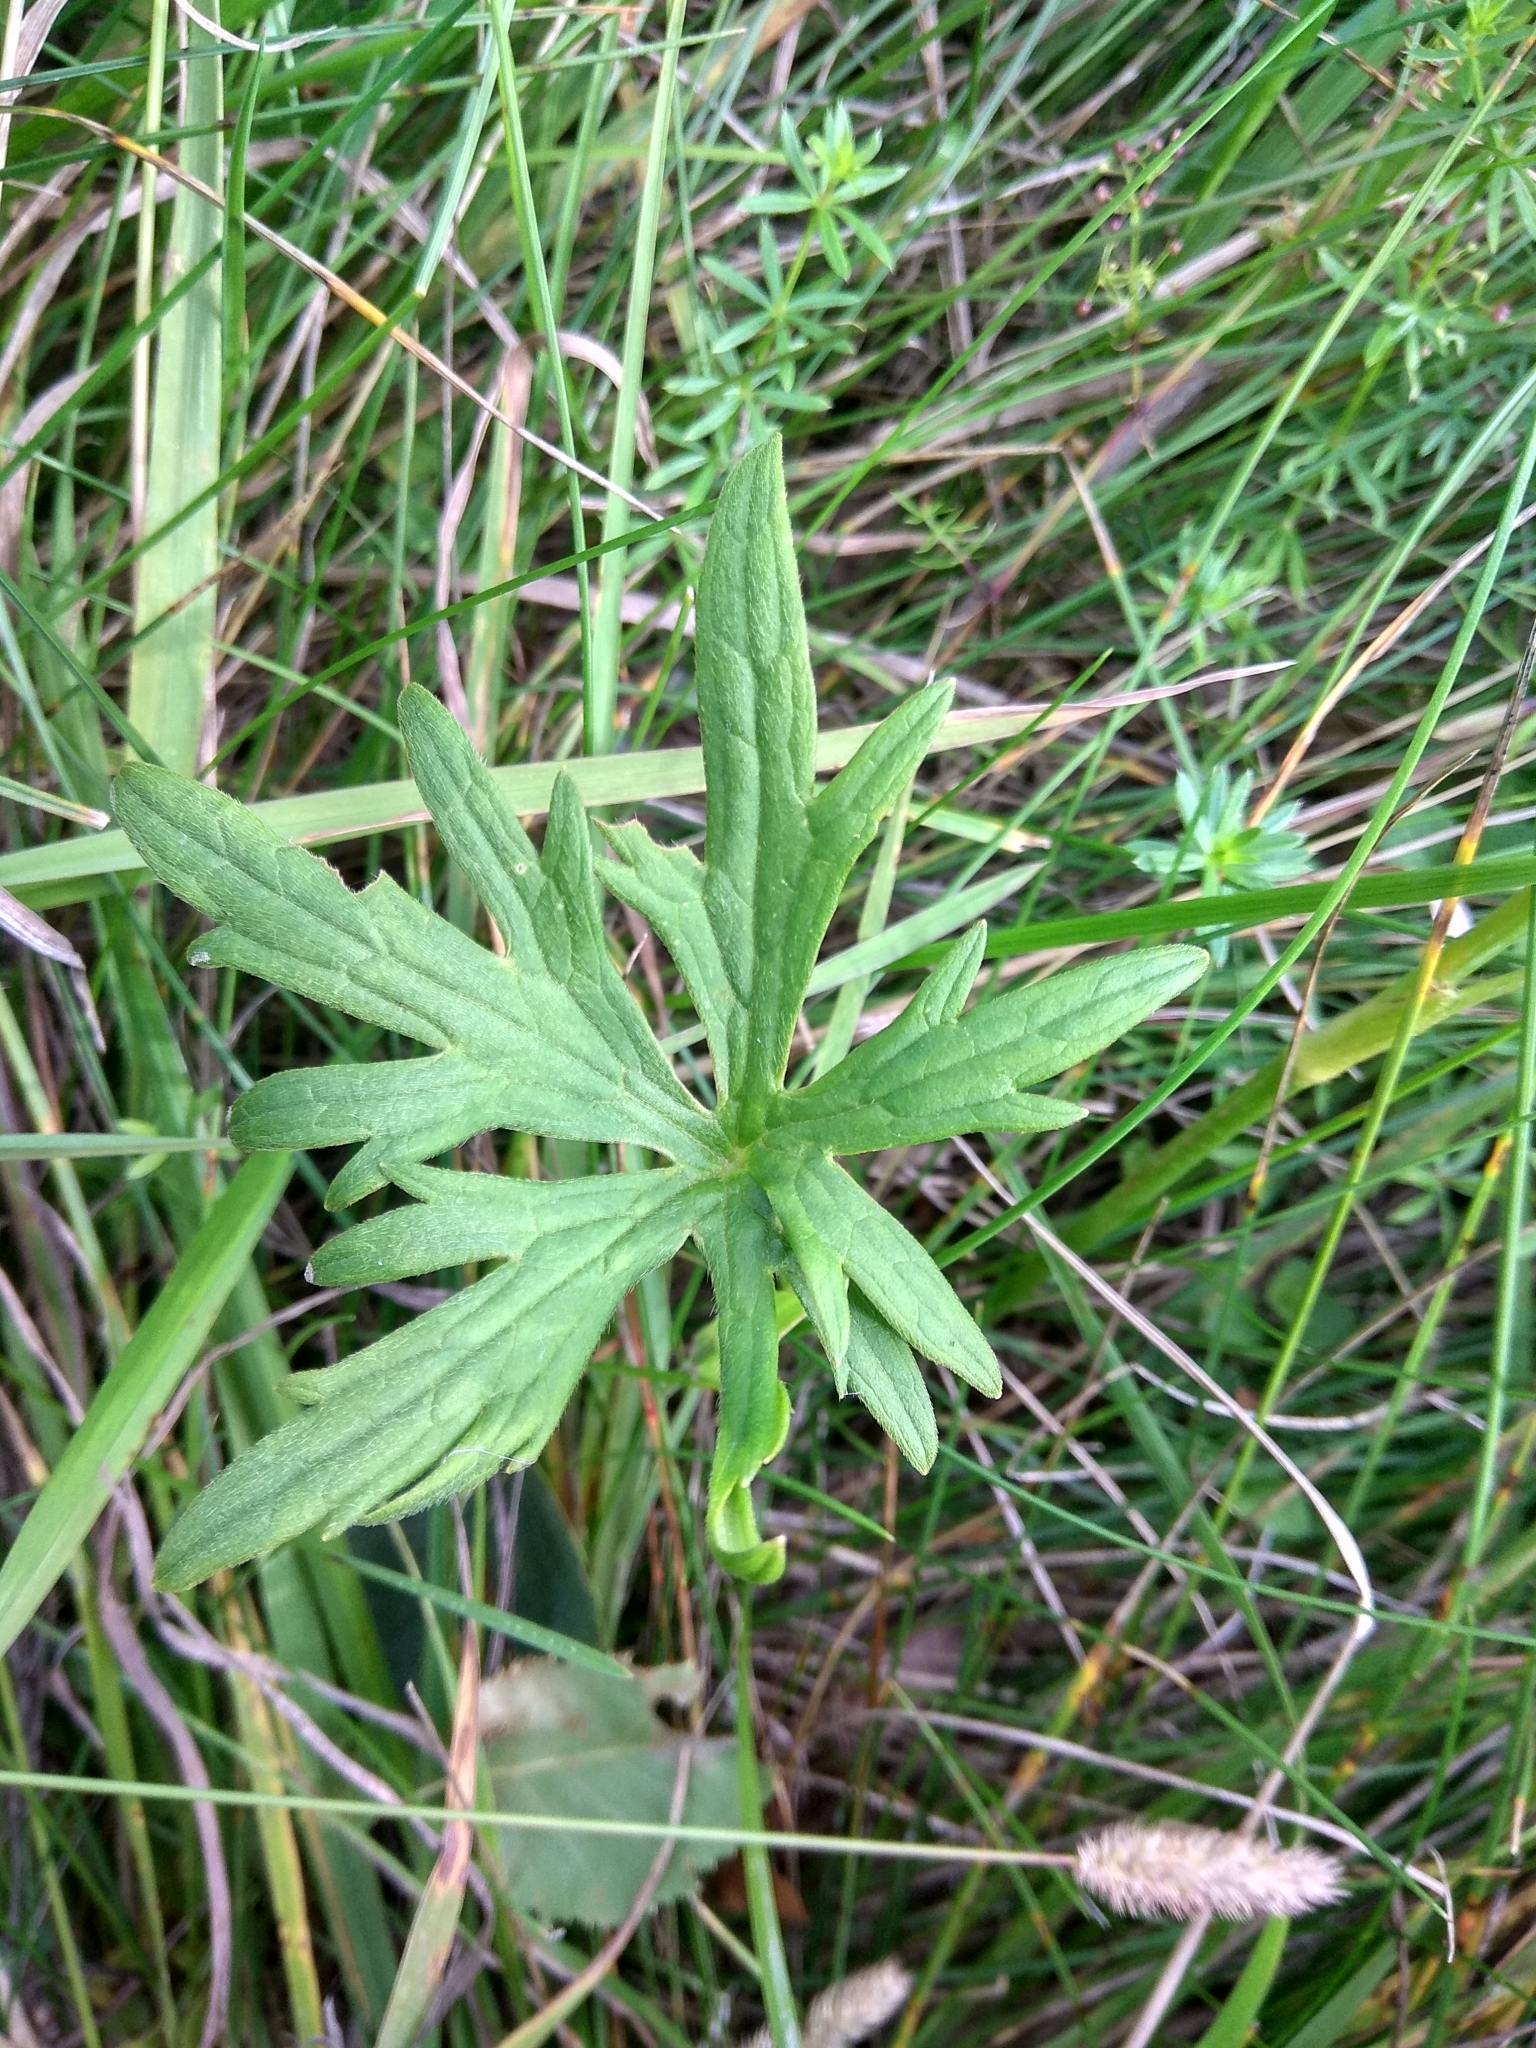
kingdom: Plantae
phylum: Tracheophyta
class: Magnoliopsida
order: Ranunculales
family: Ranunculaceae
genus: Ranunculus
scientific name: Ranunculus acris
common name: Meadow buttercup
